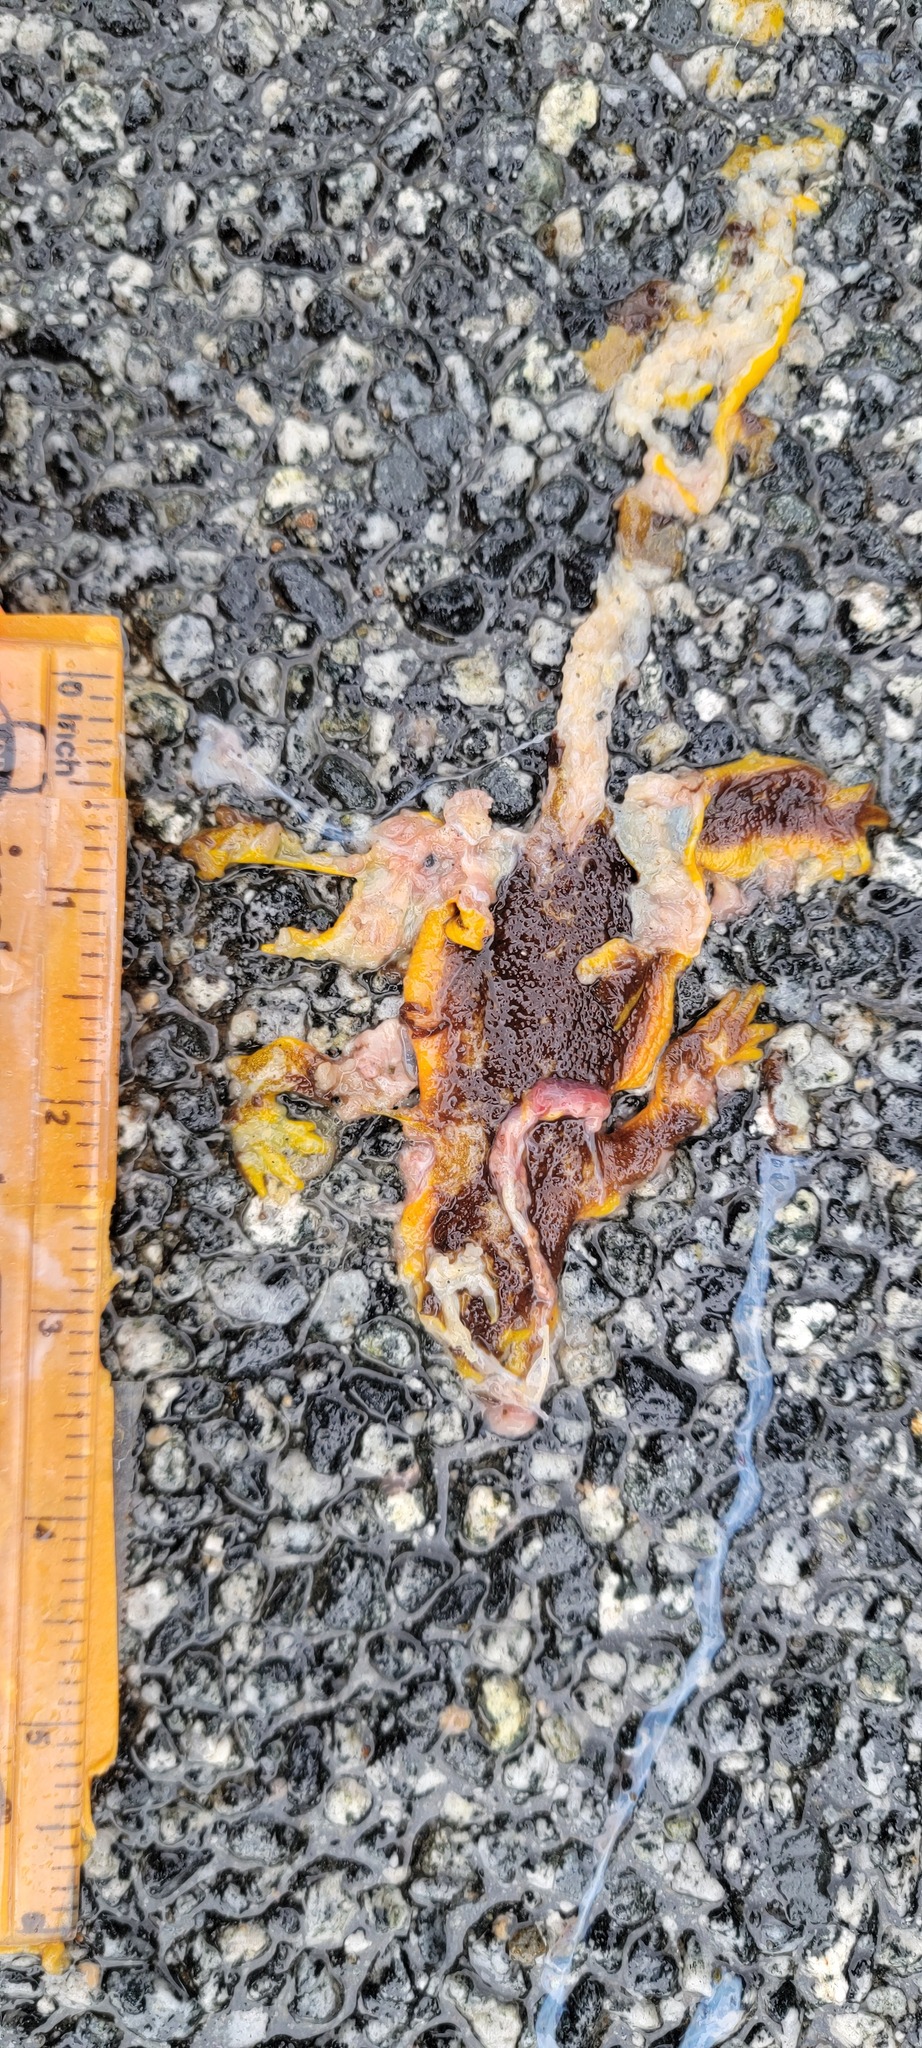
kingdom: Animalia
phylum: Chordata
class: Amphibia
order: Caudata
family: Salamandridae
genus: Taricha
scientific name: Taricha
